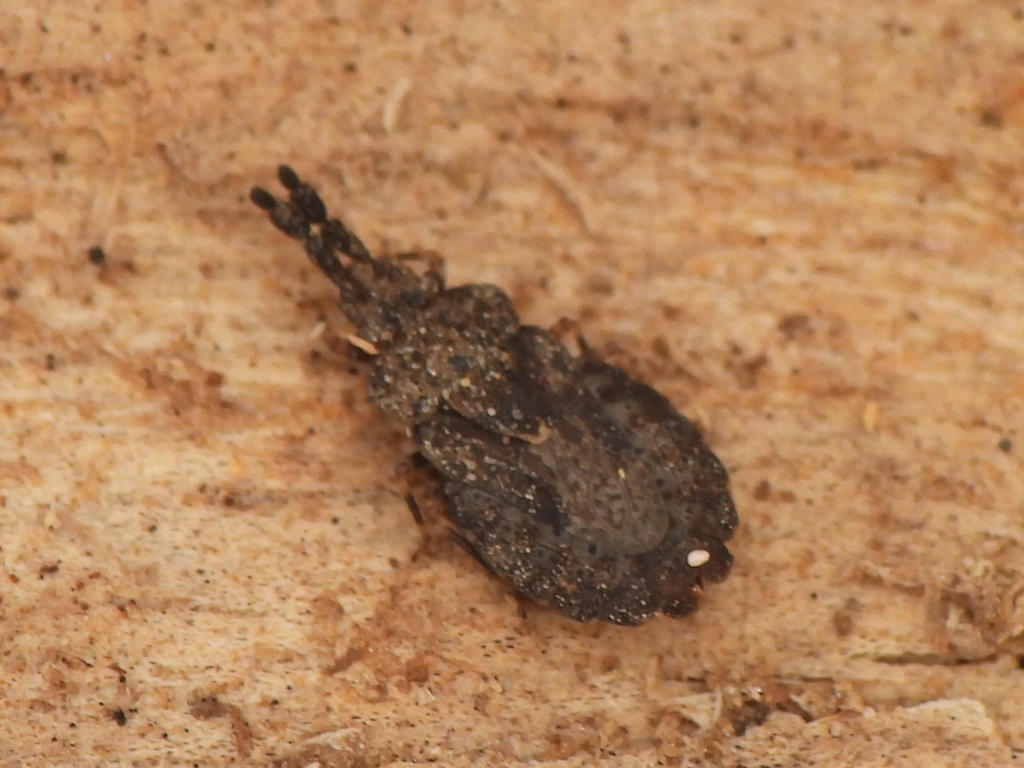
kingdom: Animalia
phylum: Arthropoda
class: Insecta
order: Hemiptera
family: Aradidae
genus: Aradus
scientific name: Aradus robustus
